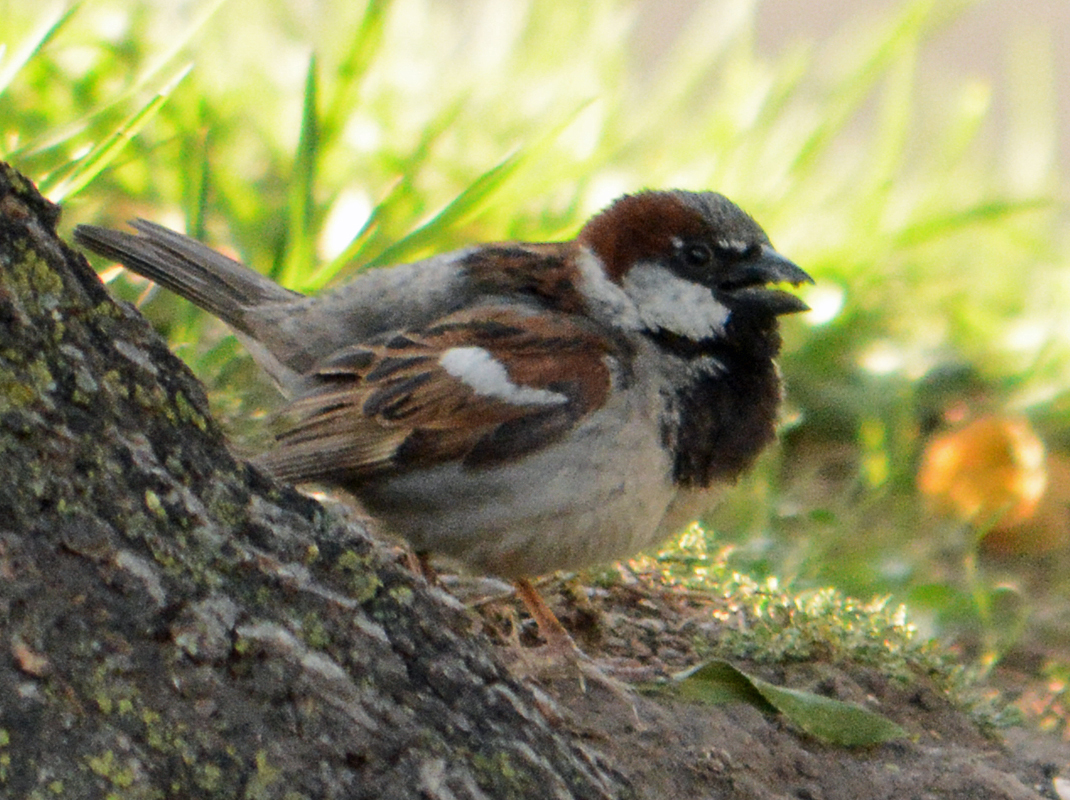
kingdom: Animalia
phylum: Chordata
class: Aves
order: Passeriformes
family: Passeridae
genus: Passer
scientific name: Passer domesticus
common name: House sparrow
